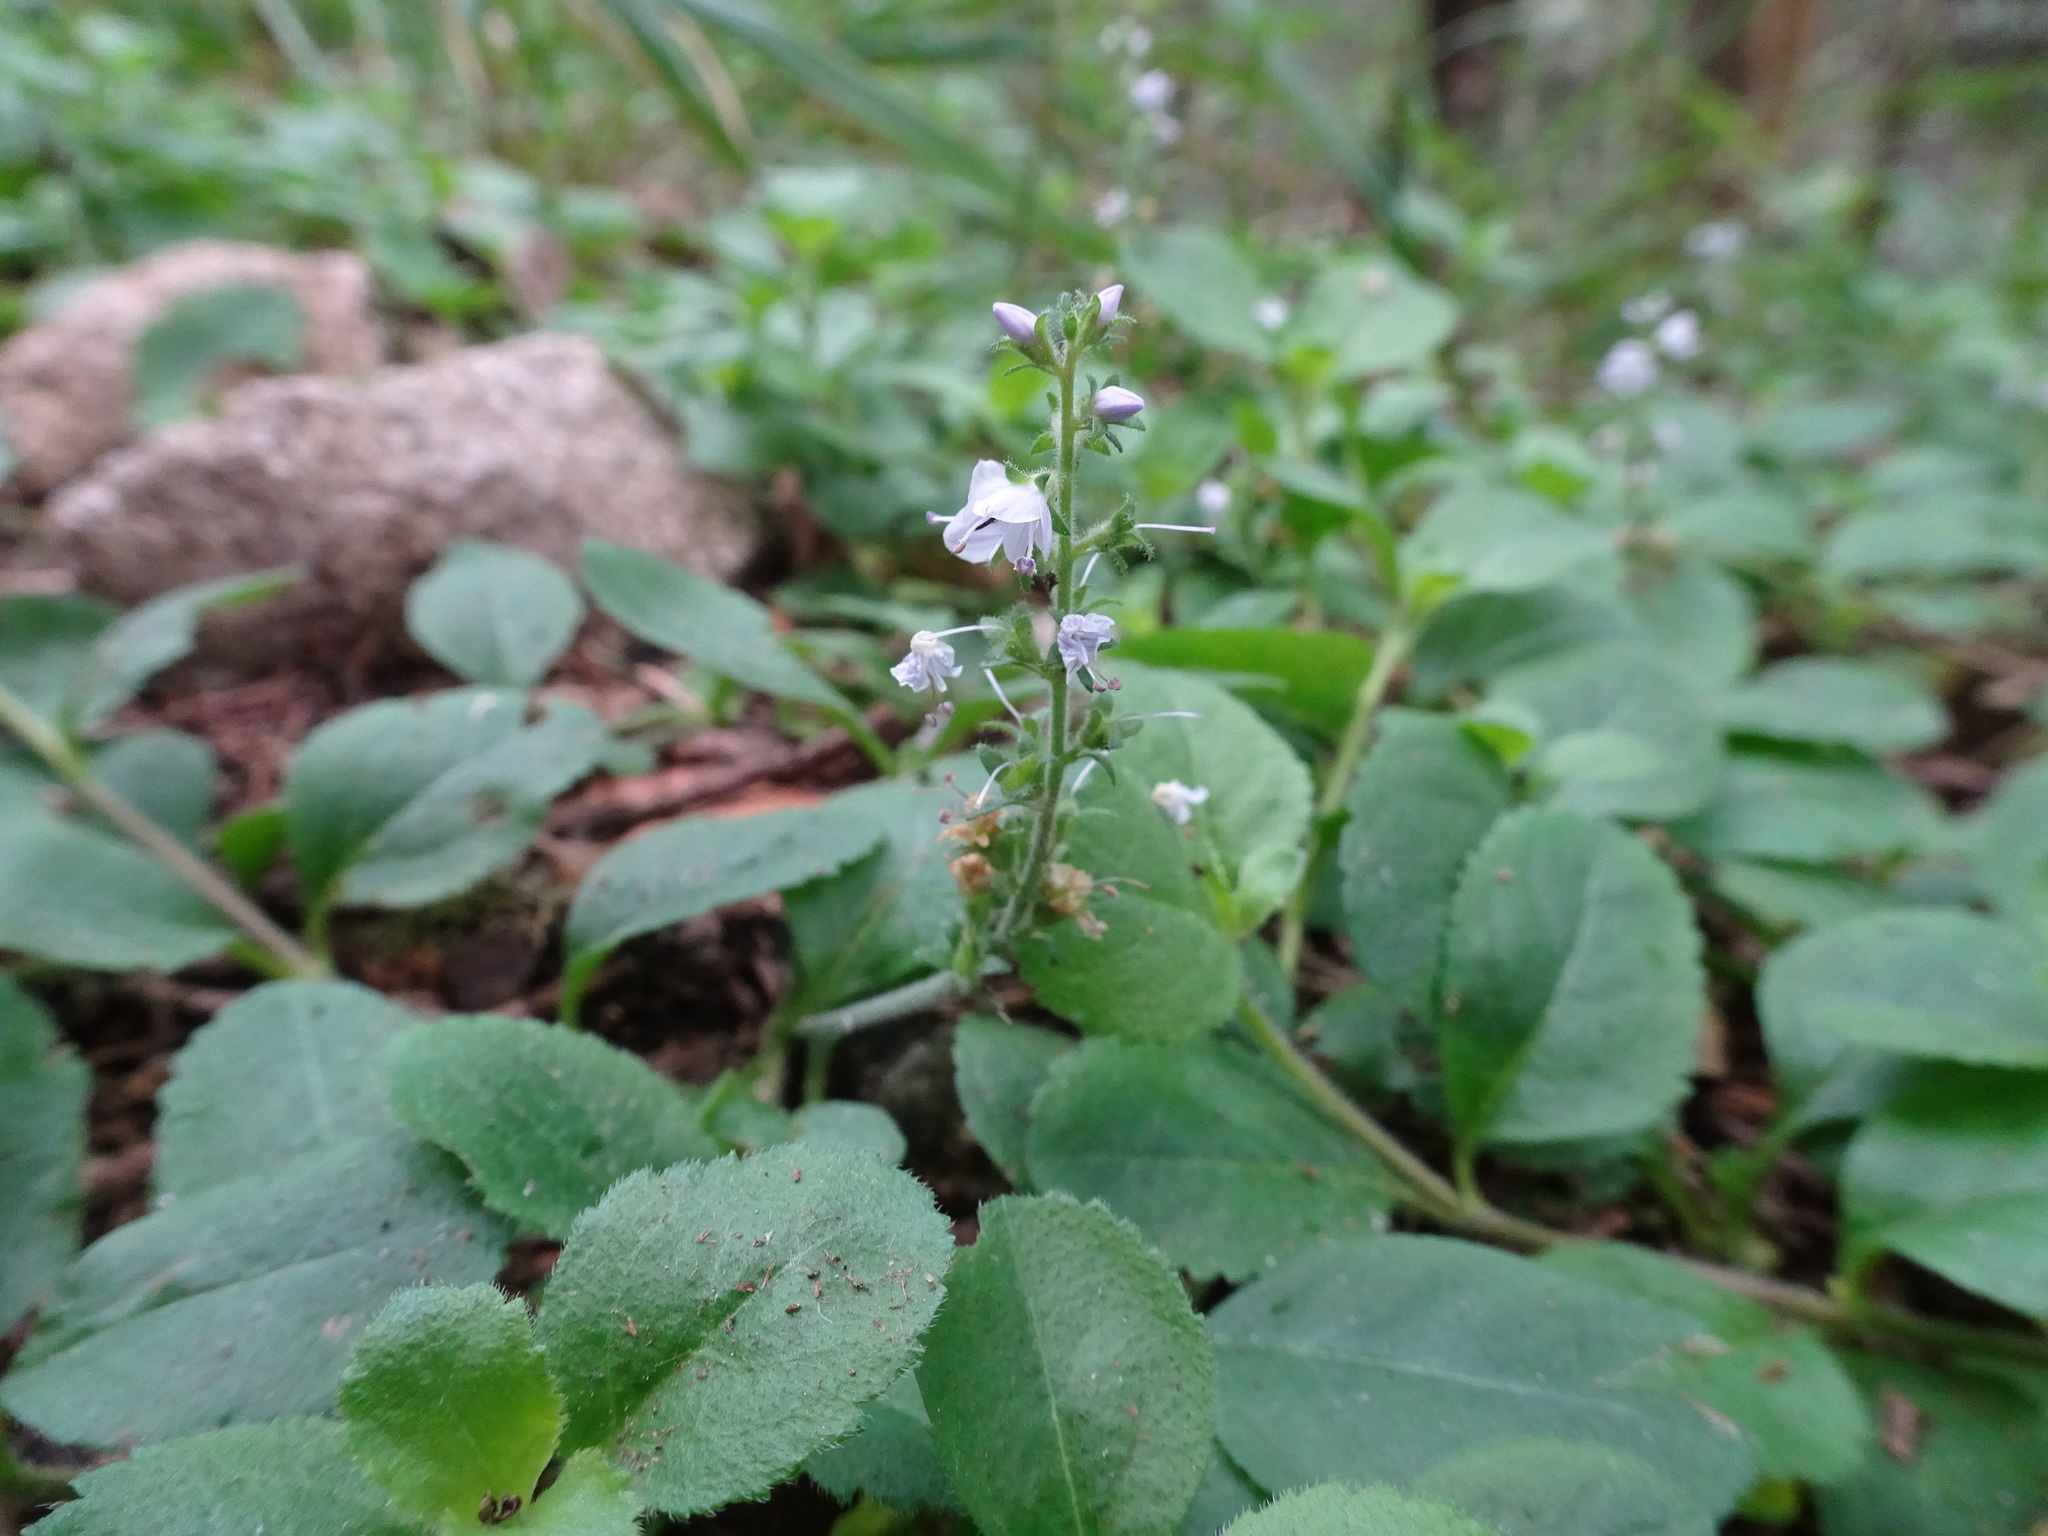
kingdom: Plantae
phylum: Tracheophyta
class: Magnoliopsida
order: Lamiales
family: Plantaginaceae
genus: Veronica
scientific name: Veronica officinalis
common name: Common speedwell
